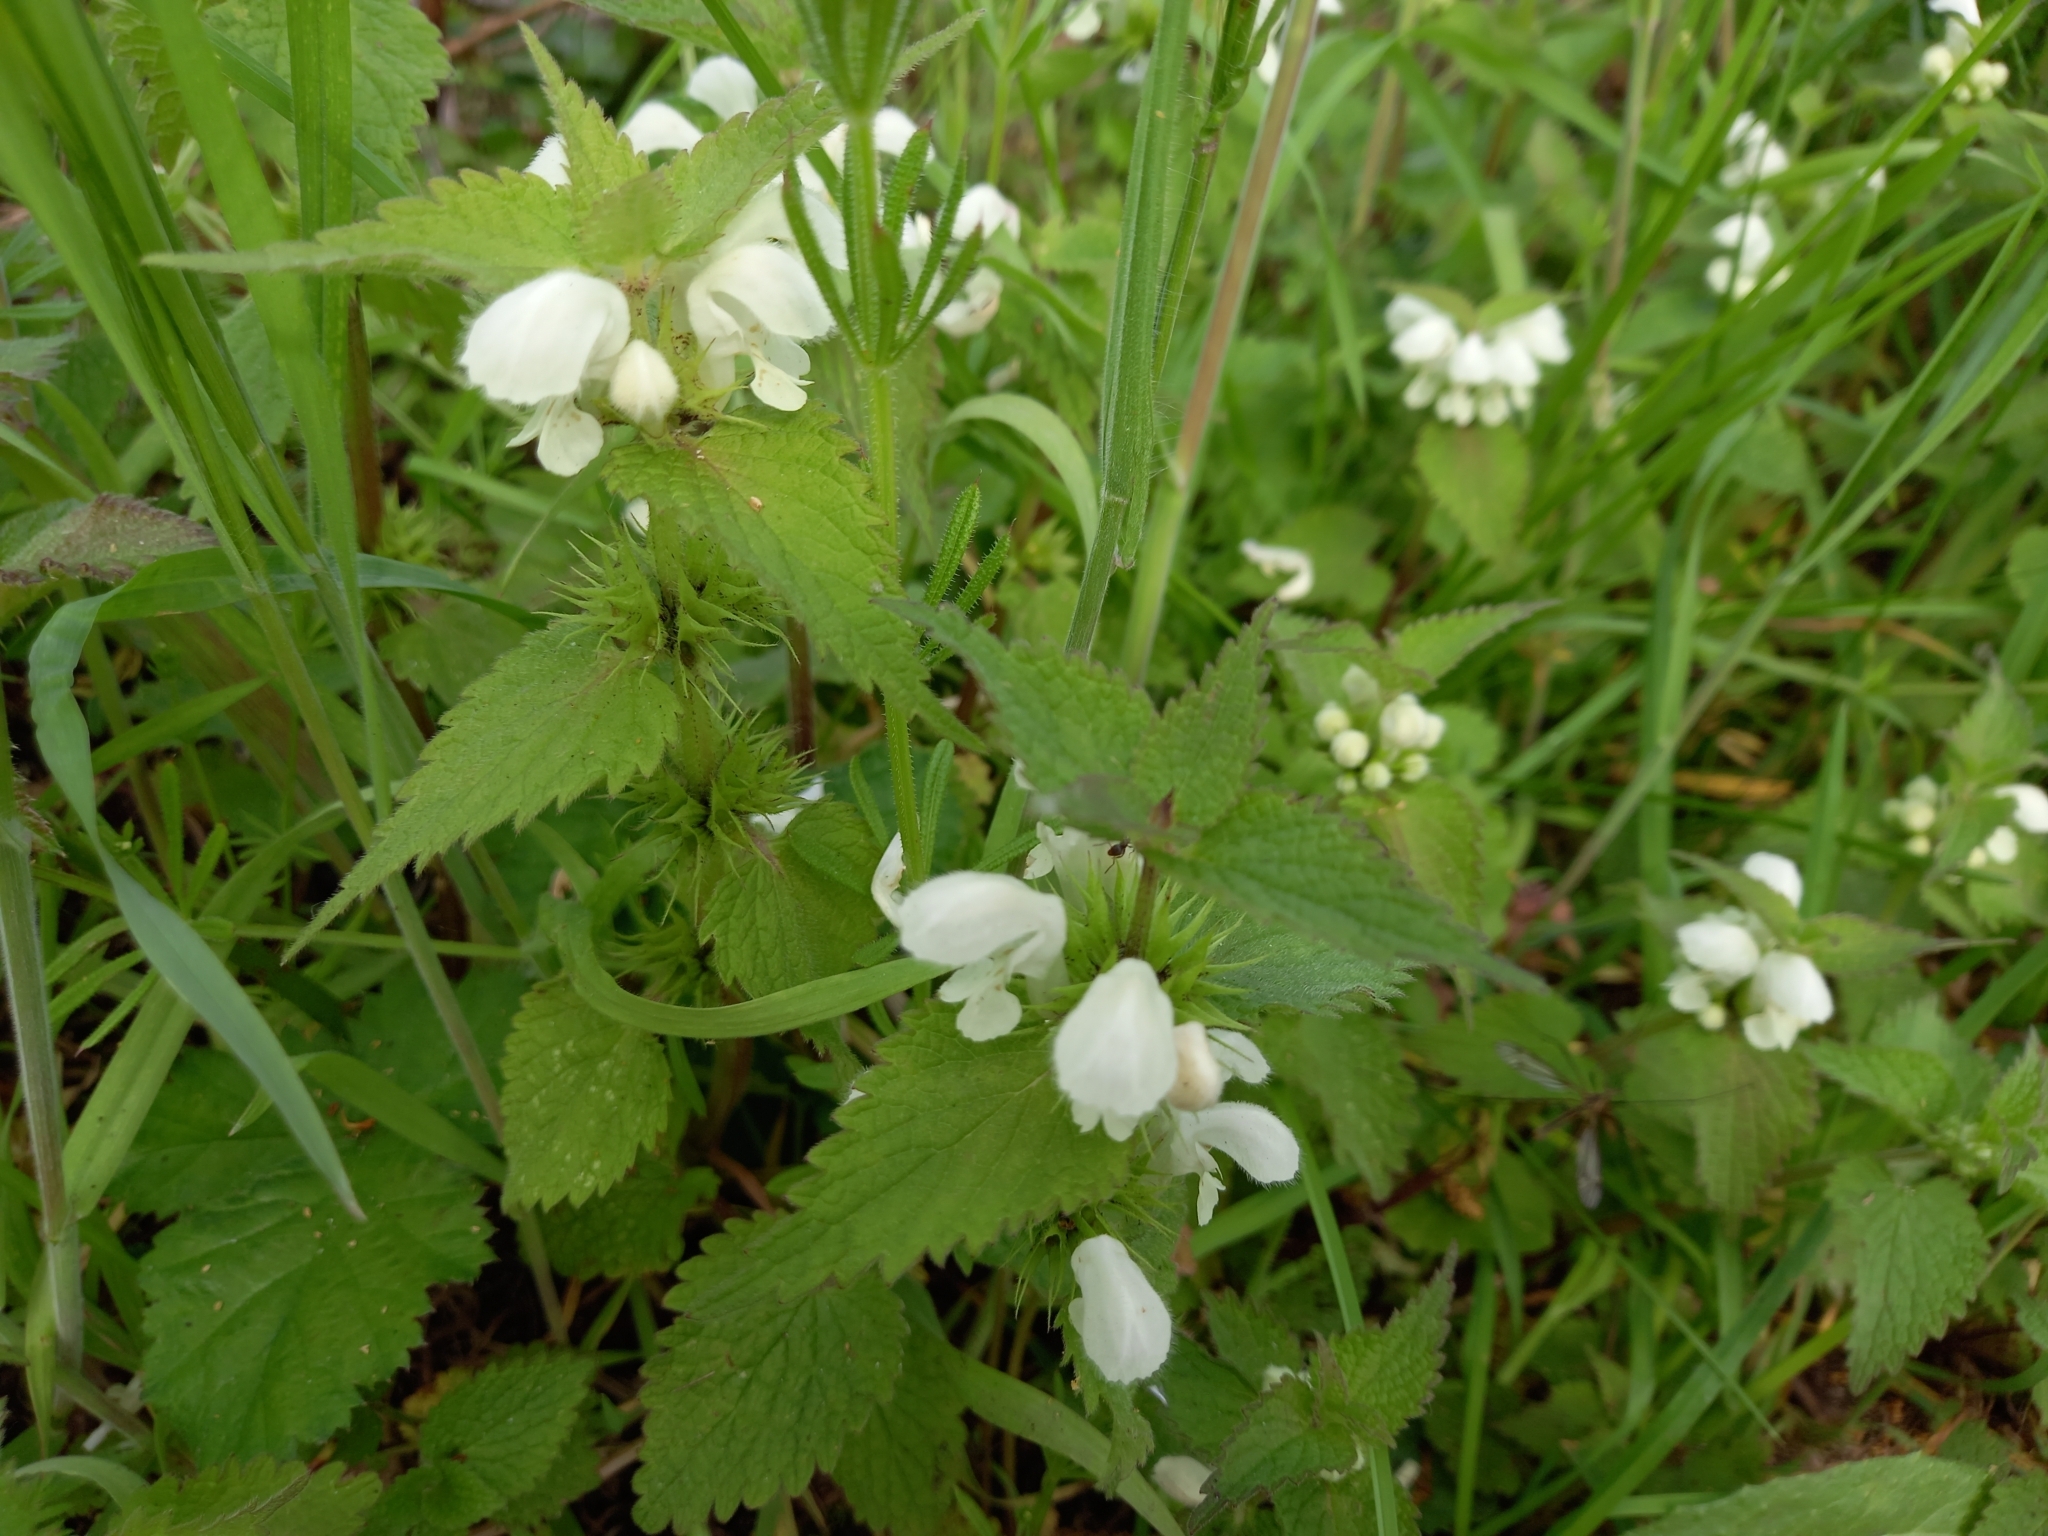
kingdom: Plantae
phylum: Tracheophyta
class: Magnoliopsida
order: Lamiales
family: Lamiaceae
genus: Lamium
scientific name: Lamium album
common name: White dead-nettle
